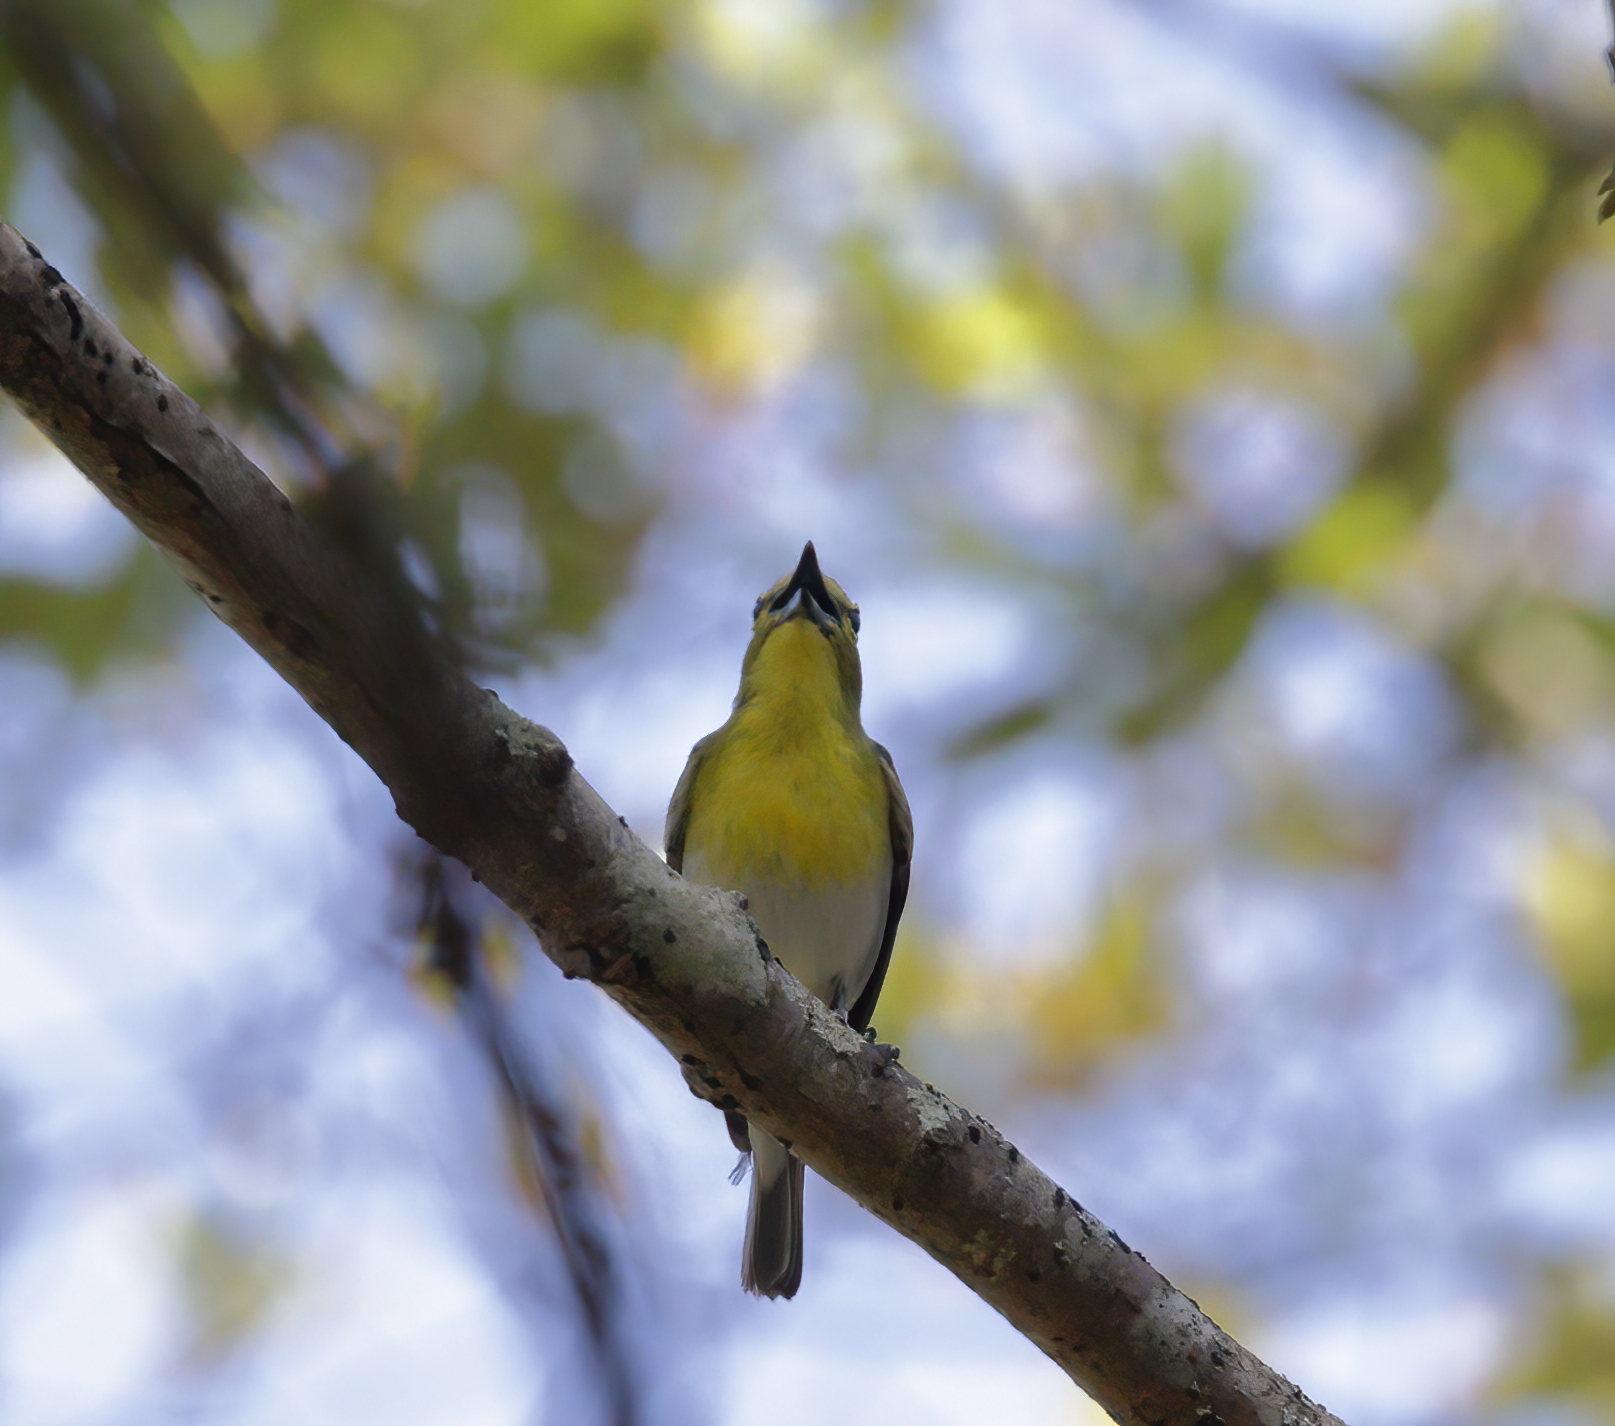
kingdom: Animalia
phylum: Chordata
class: Aves
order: Passeriformes
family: Vireonidae
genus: Vireo
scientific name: Vireo flavifrons
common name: Yellow-throated vireo
